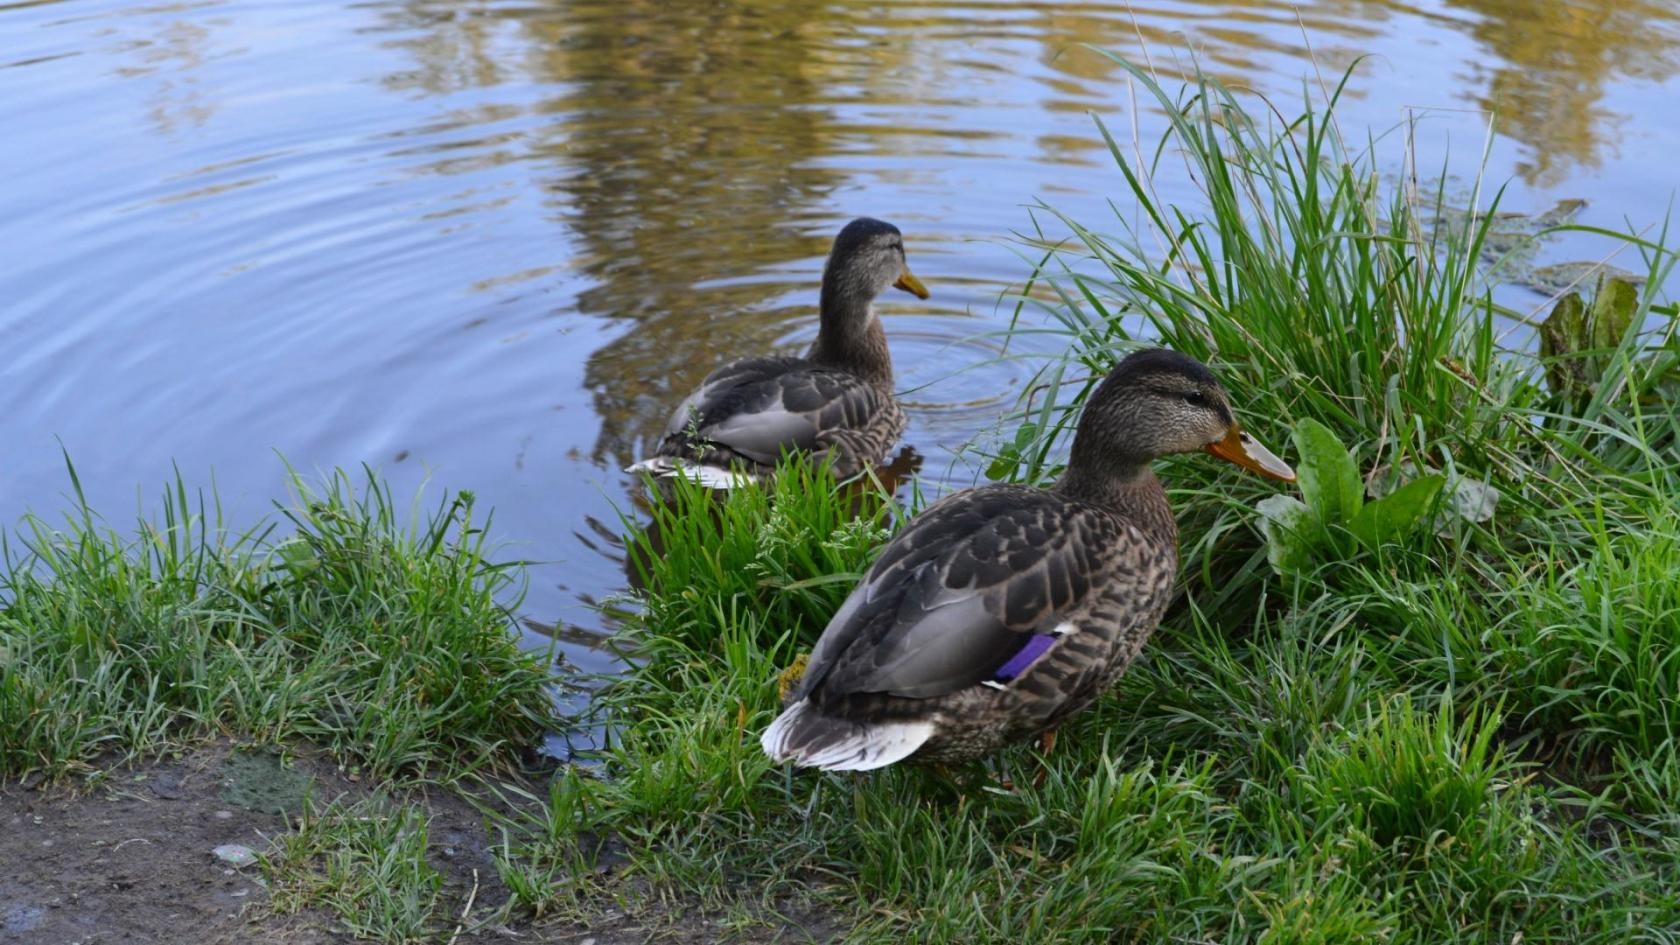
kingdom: Animalia
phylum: Chordata
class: Aves
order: Anseriformes
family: Anatidae
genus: Anas
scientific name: Anas platyrhynchos
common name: Mallard
